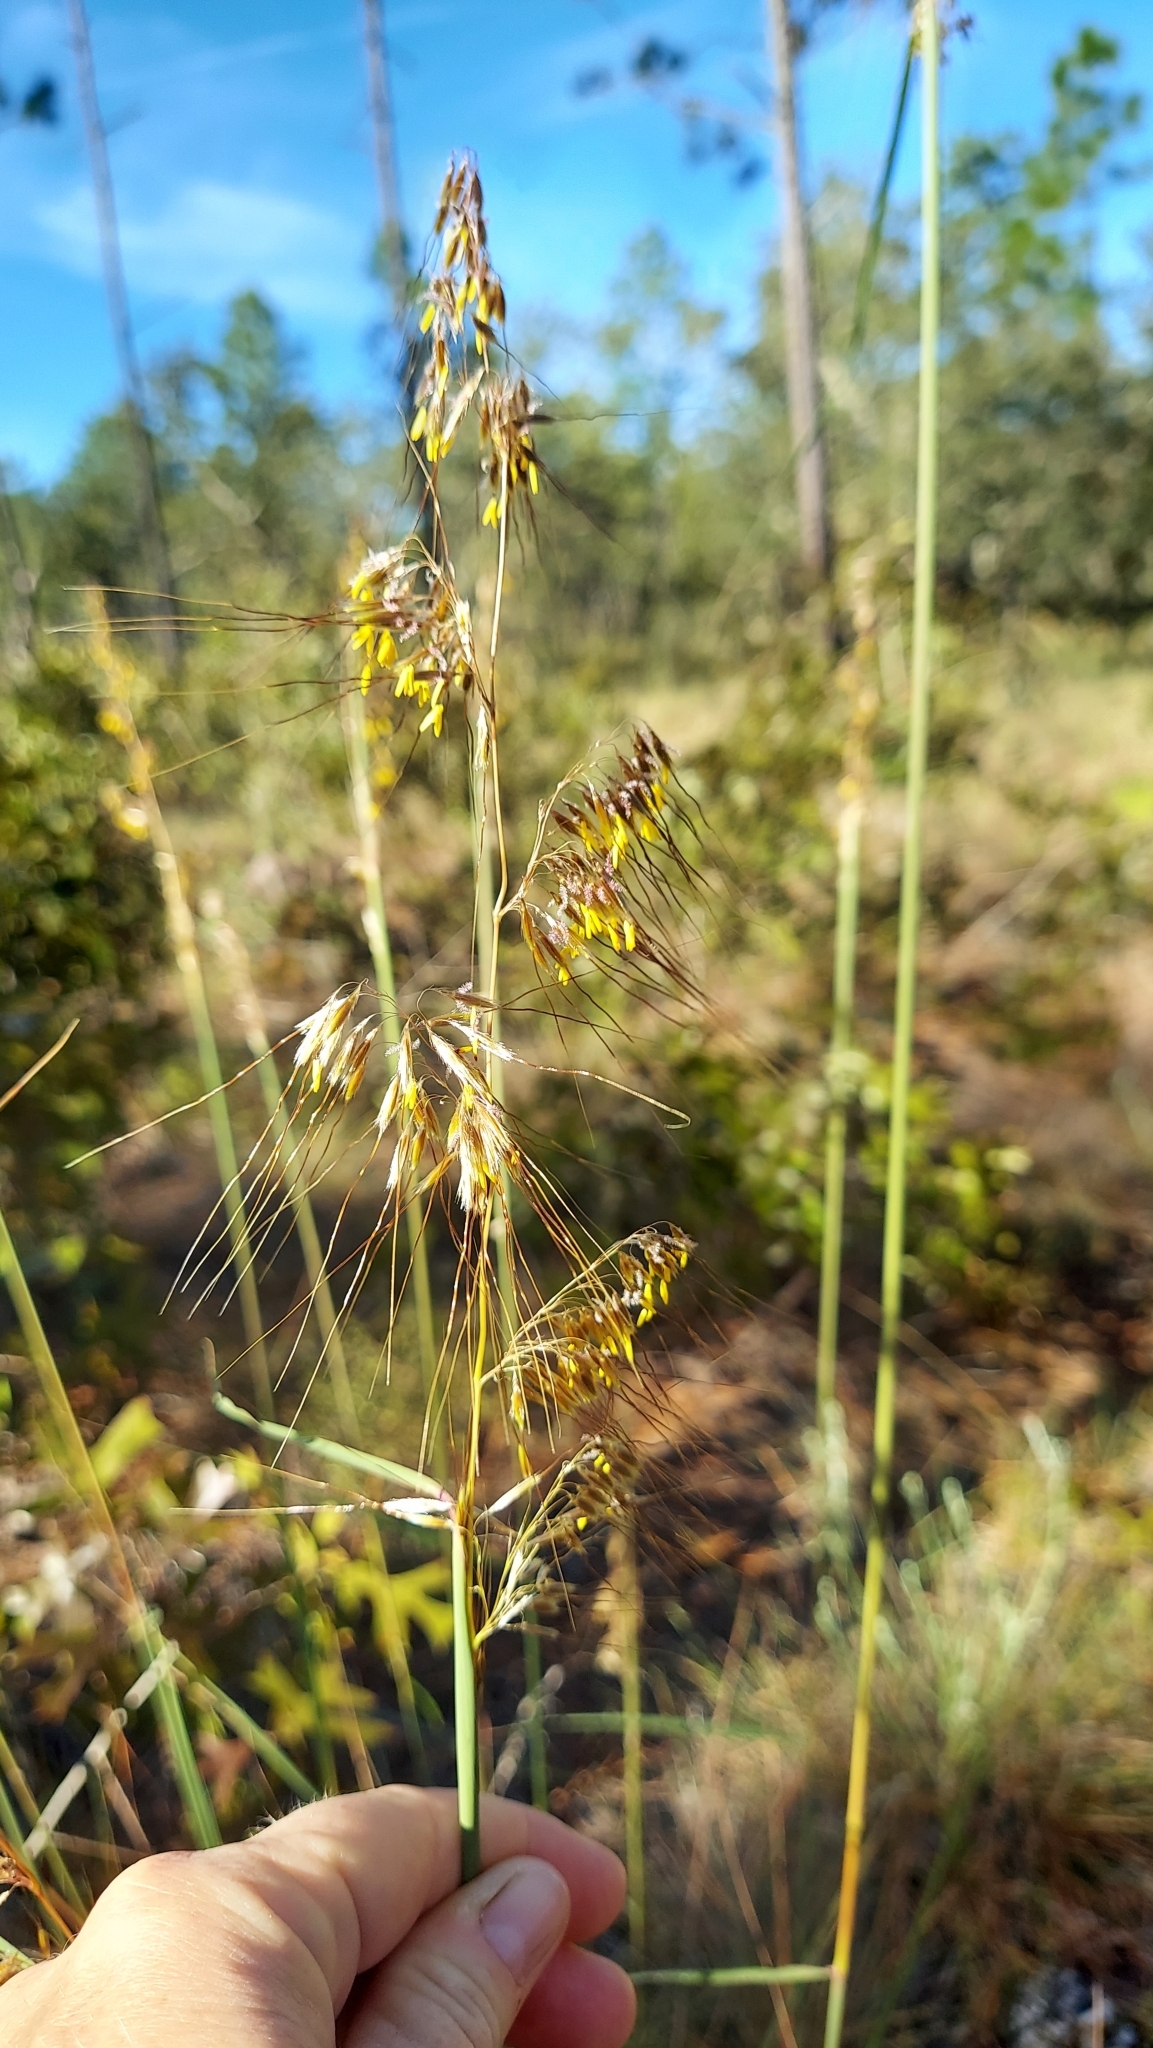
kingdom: Plantae
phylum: Tracheophyta
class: Liliopsida
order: Poales
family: Poaceae
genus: Sorghastrum
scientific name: Sorghastrum secundum
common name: Lopsided indian grass
